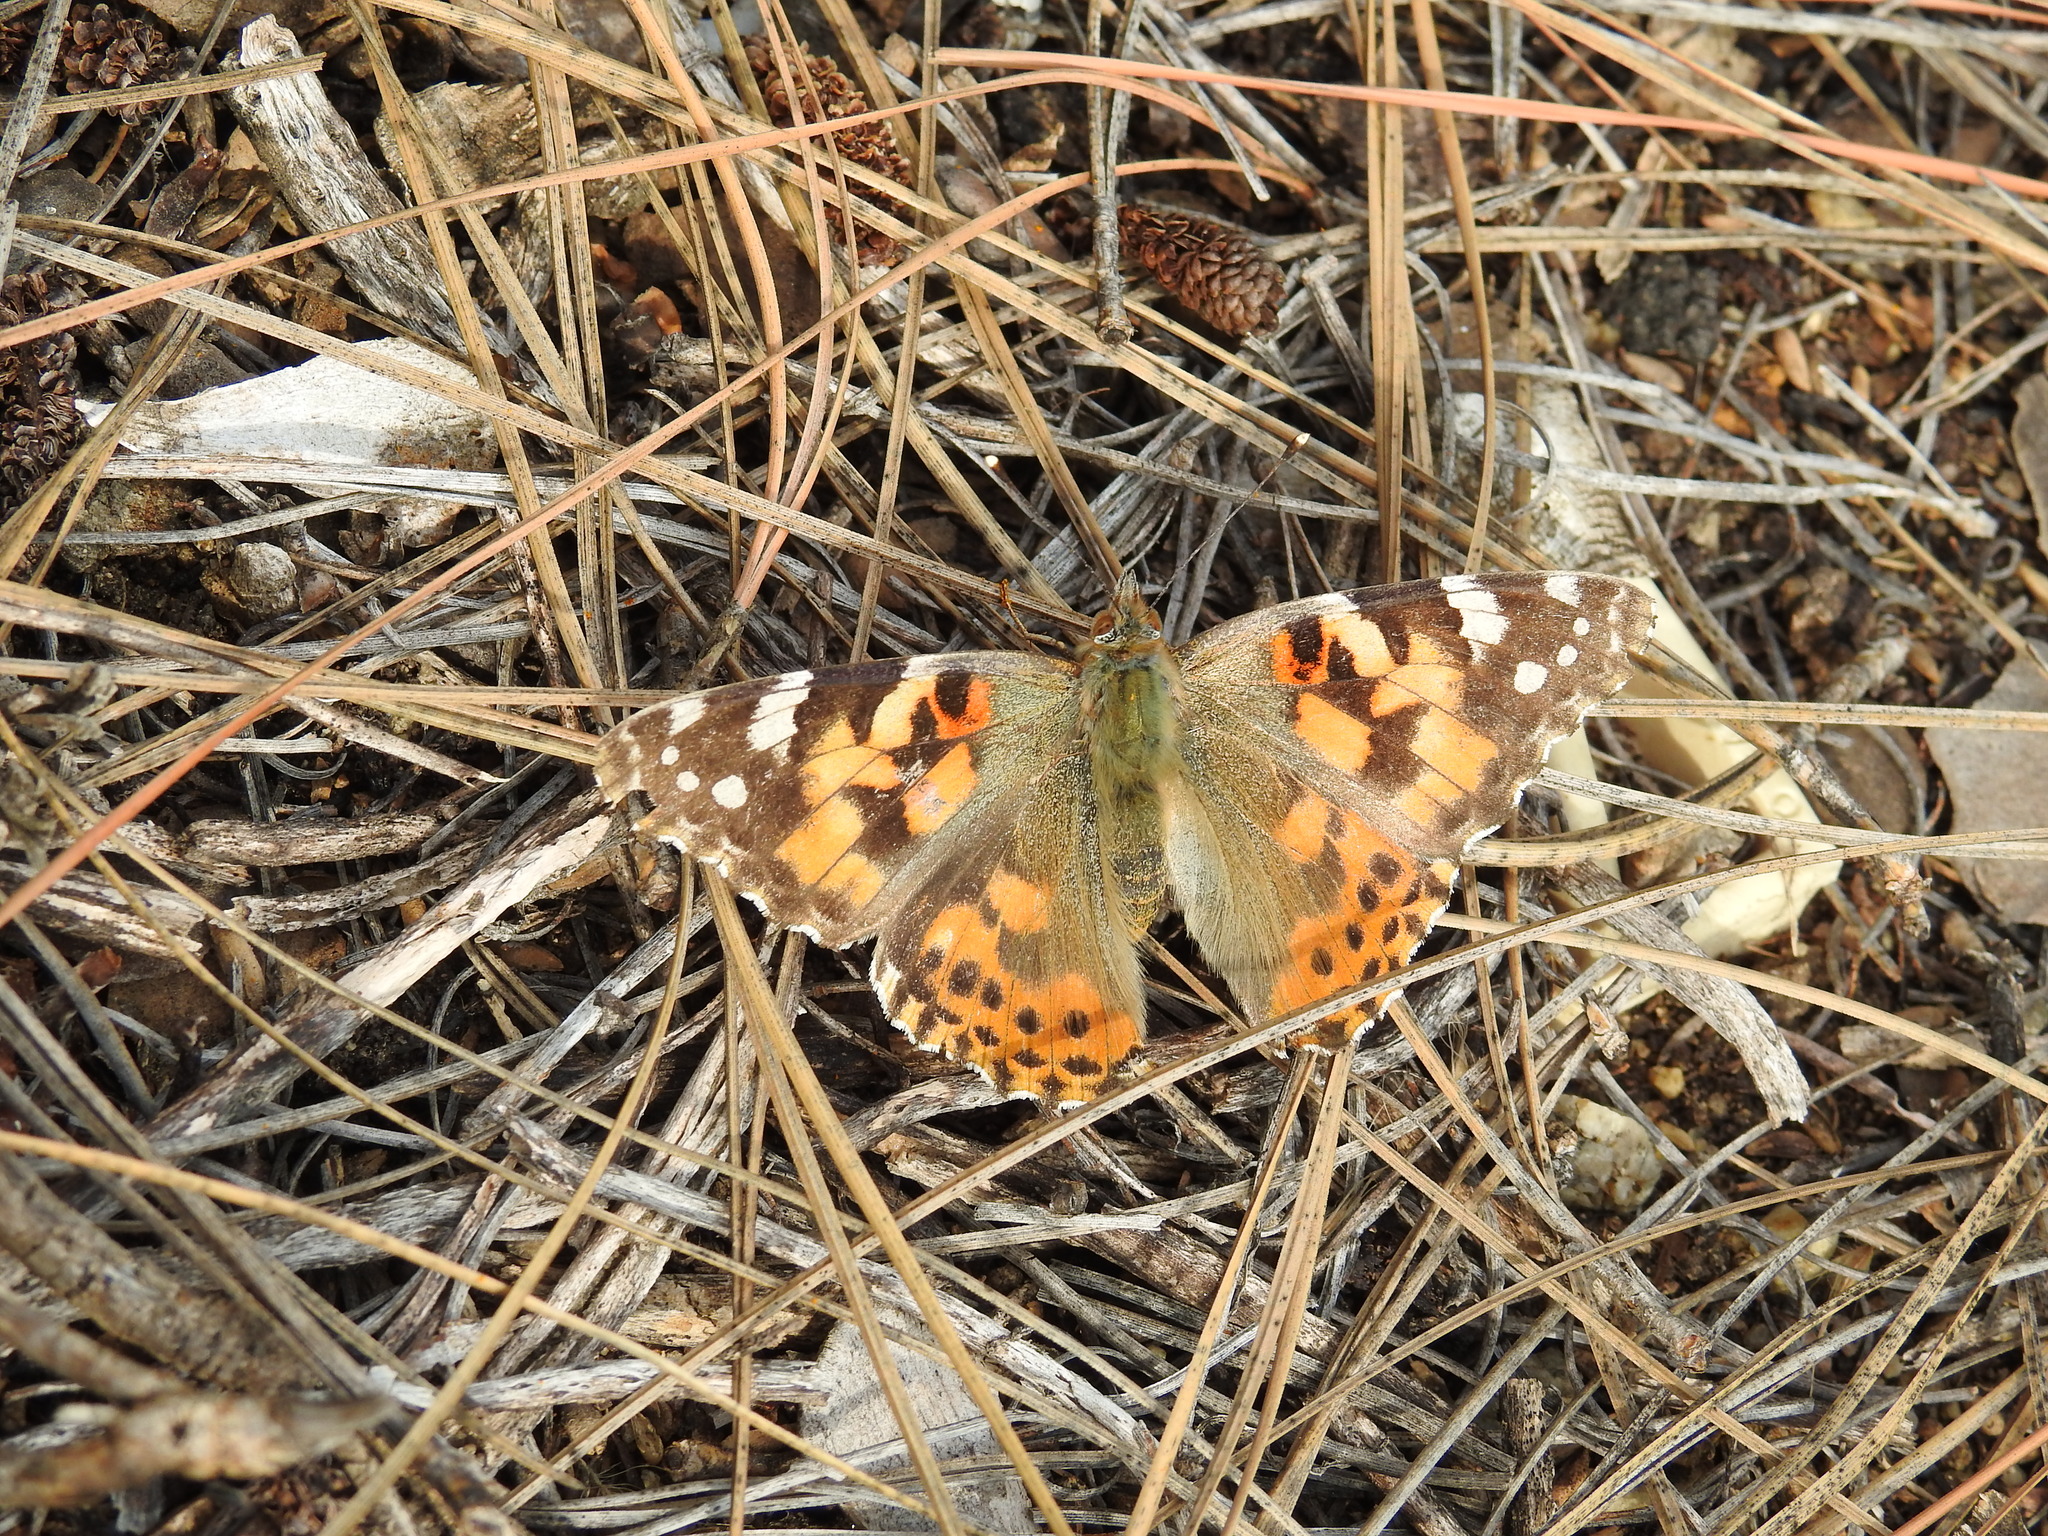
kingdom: Animalia
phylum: Arthropoda
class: Insecta
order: Lepidoptera
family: Nymphalidae
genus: Vanessa
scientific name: Vanessa cardui
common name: Painted lady
